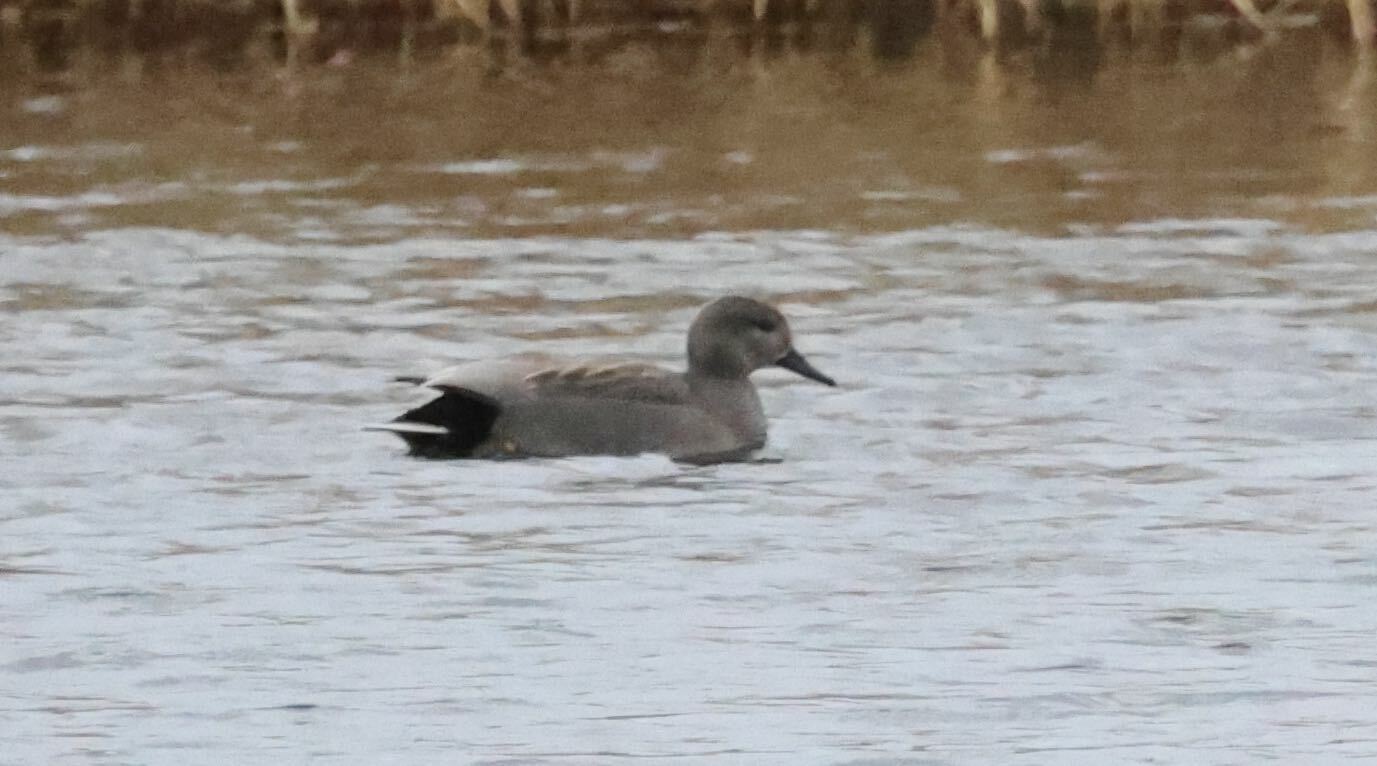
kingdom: Animalia
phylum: Chordata
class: Aves
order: Anseriformes
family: Anatidae
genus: Mareca
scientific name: Mareca strepera
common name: Gadwall
